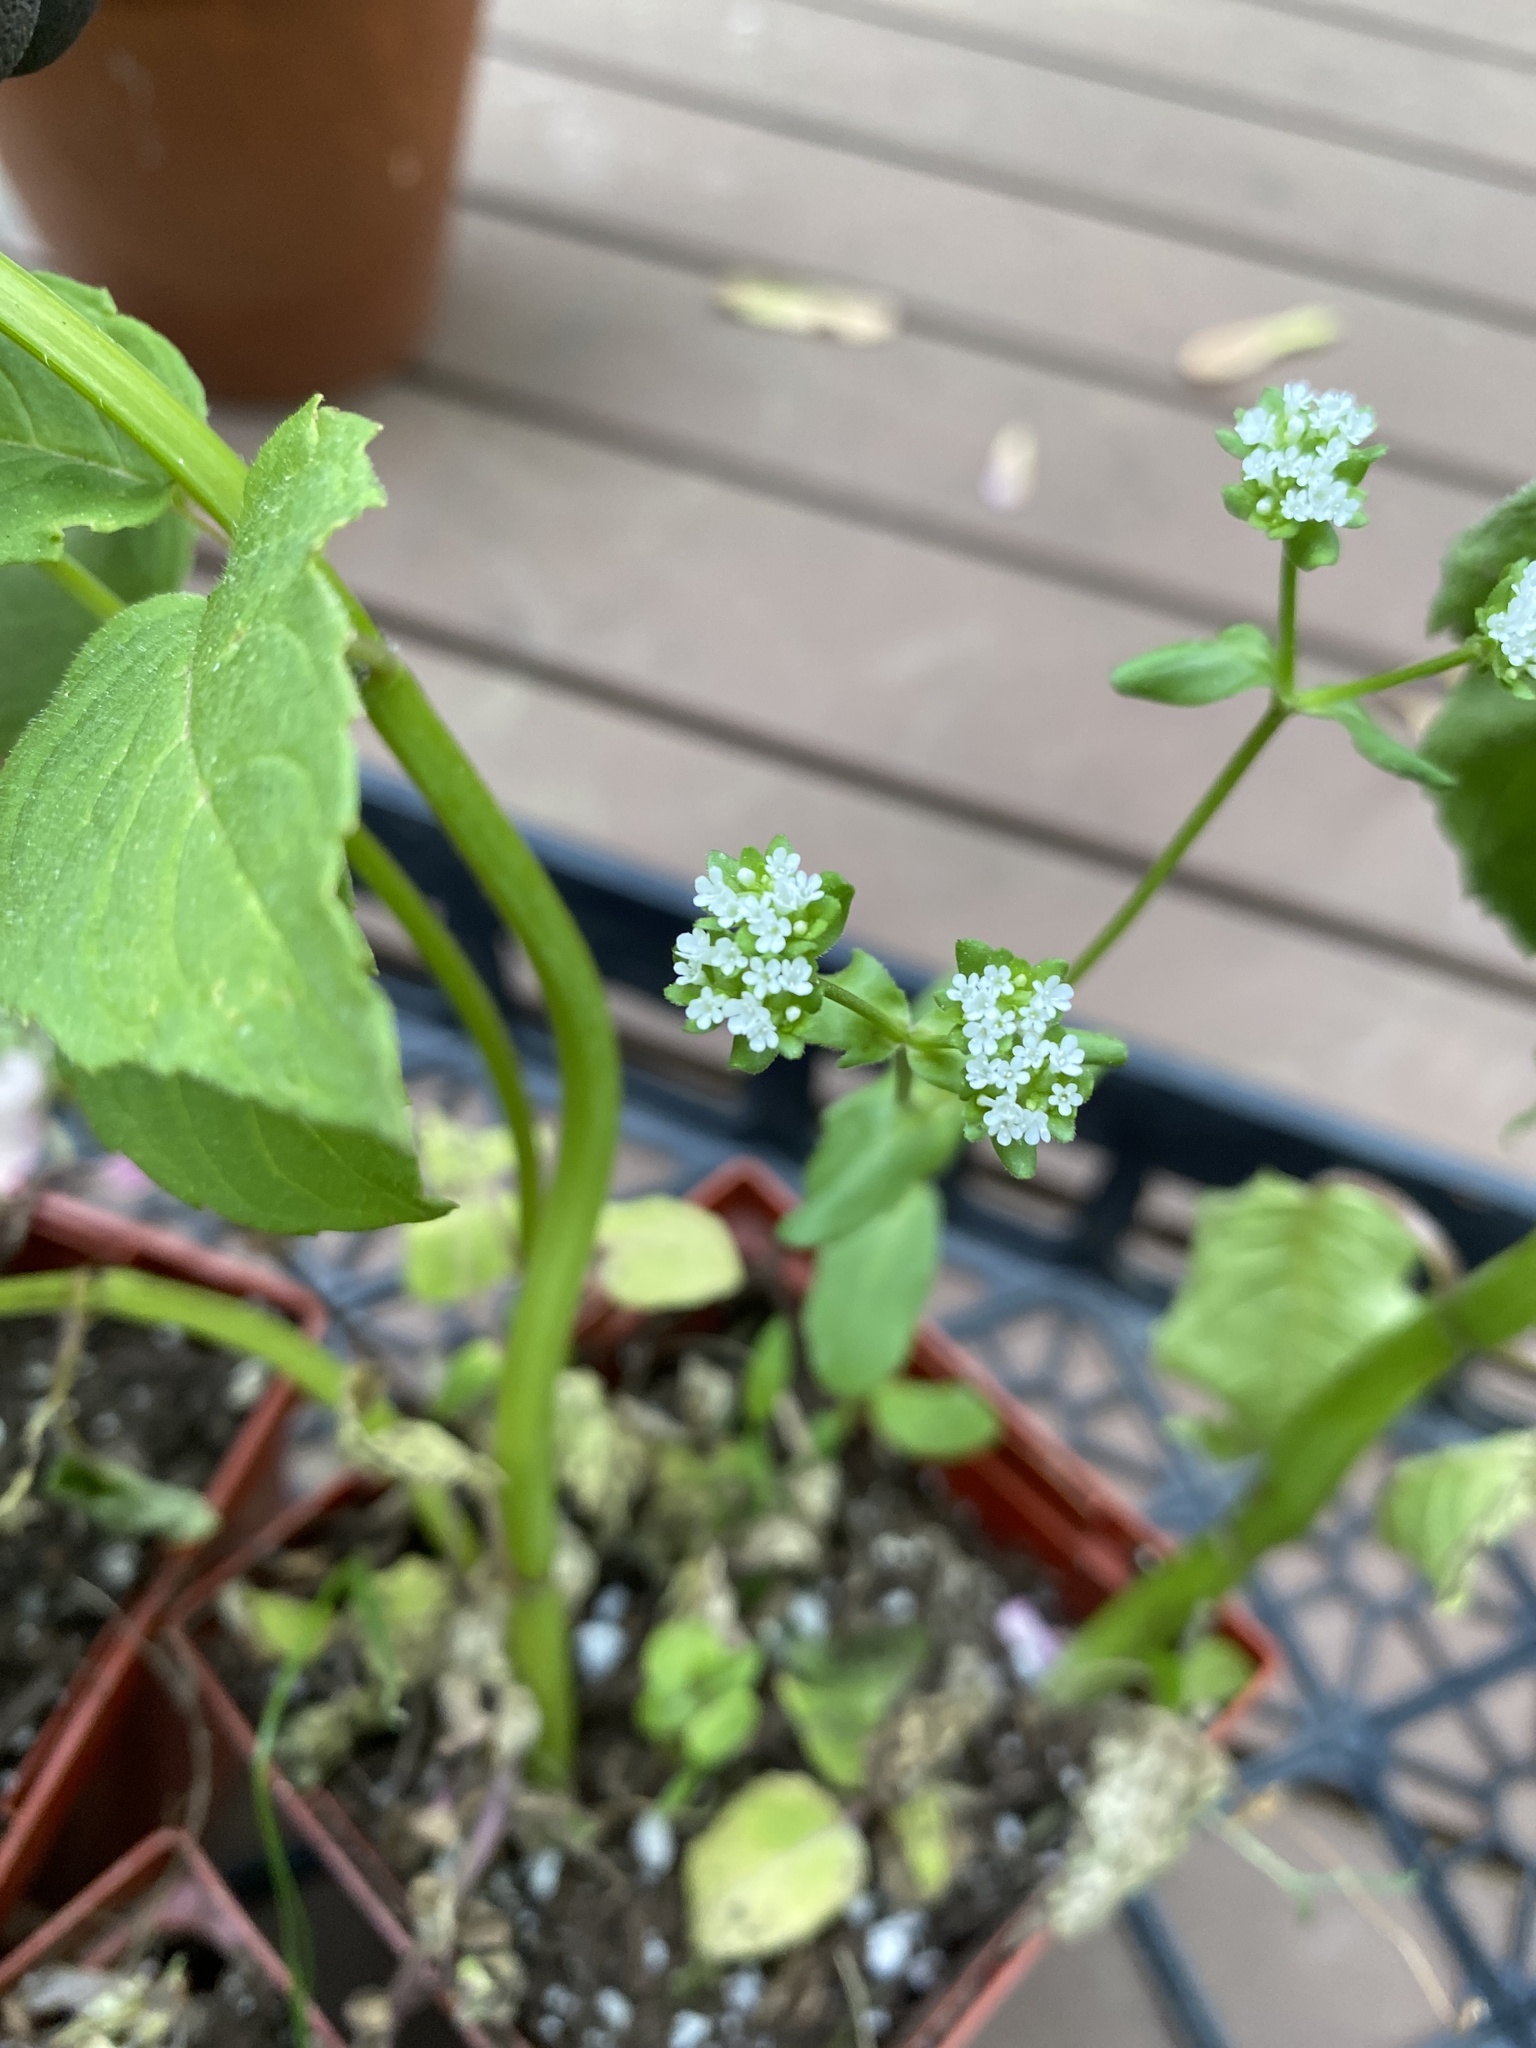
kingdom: Plantae
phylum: Tracheophyta
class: Magnoliopsida
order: Dipsacales
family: Caprifoliaceae
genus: Valerianella
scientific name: Valerianella locusta
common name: Common cornsalad
